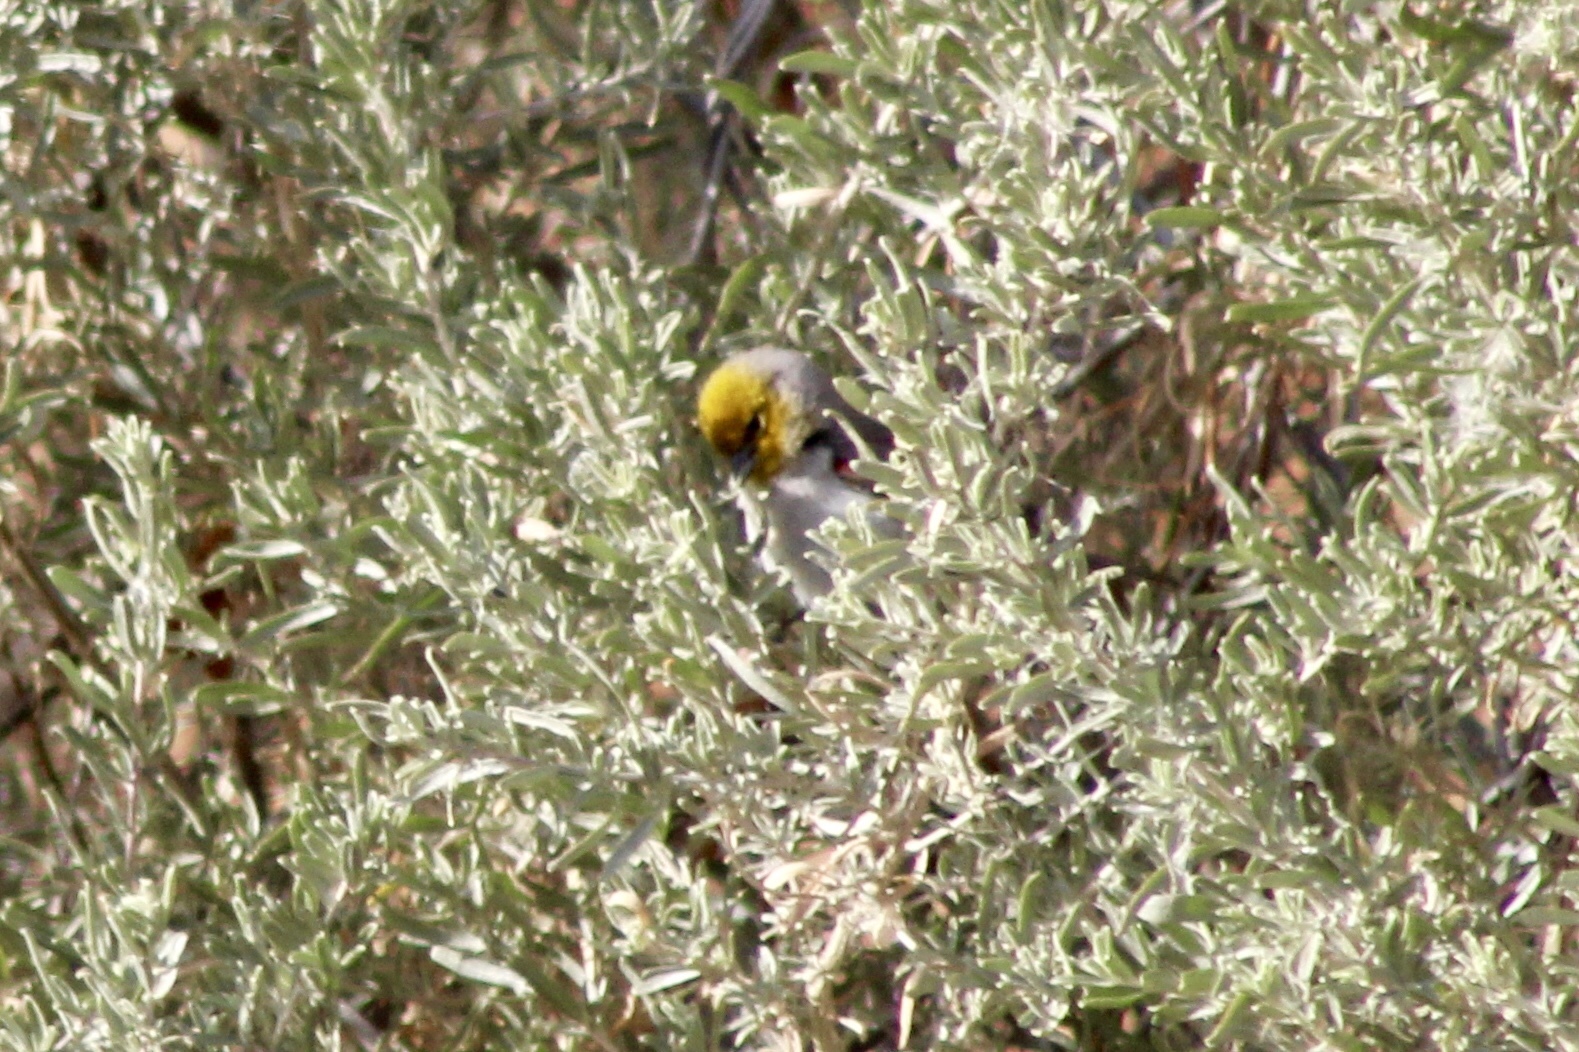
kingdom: Animalia
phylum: Chordata
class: Aves
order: Passeriformes
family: Remizidae
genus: Auriparus
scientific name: Auriparus flaviceps
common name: Verdin
